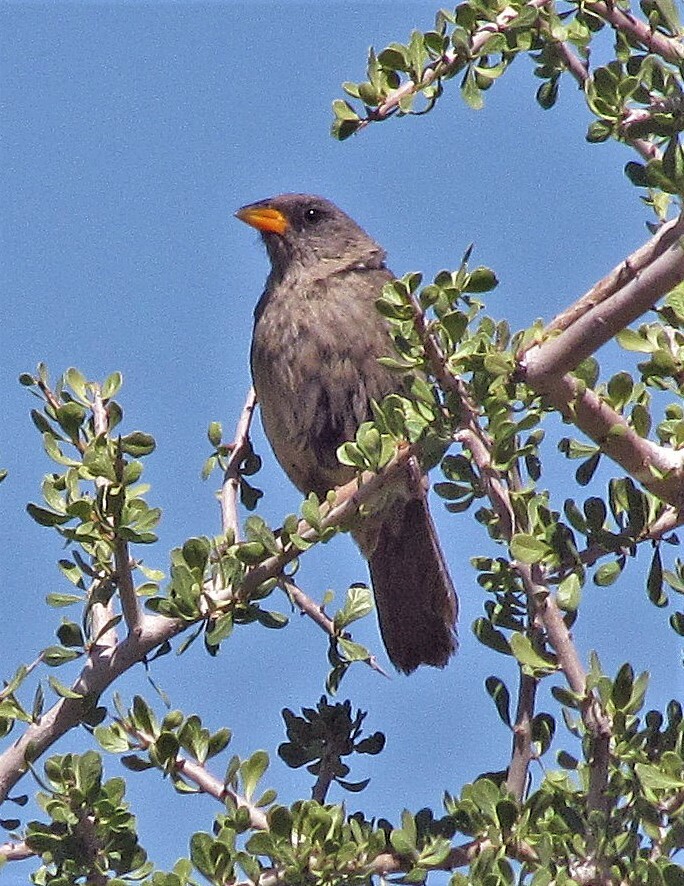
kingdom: Animalia
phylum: Chordata
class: Aves
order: Passeriformes
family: Thraupidae
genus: Embernagra
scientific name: Embernagra platensis
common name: Pampa finch
